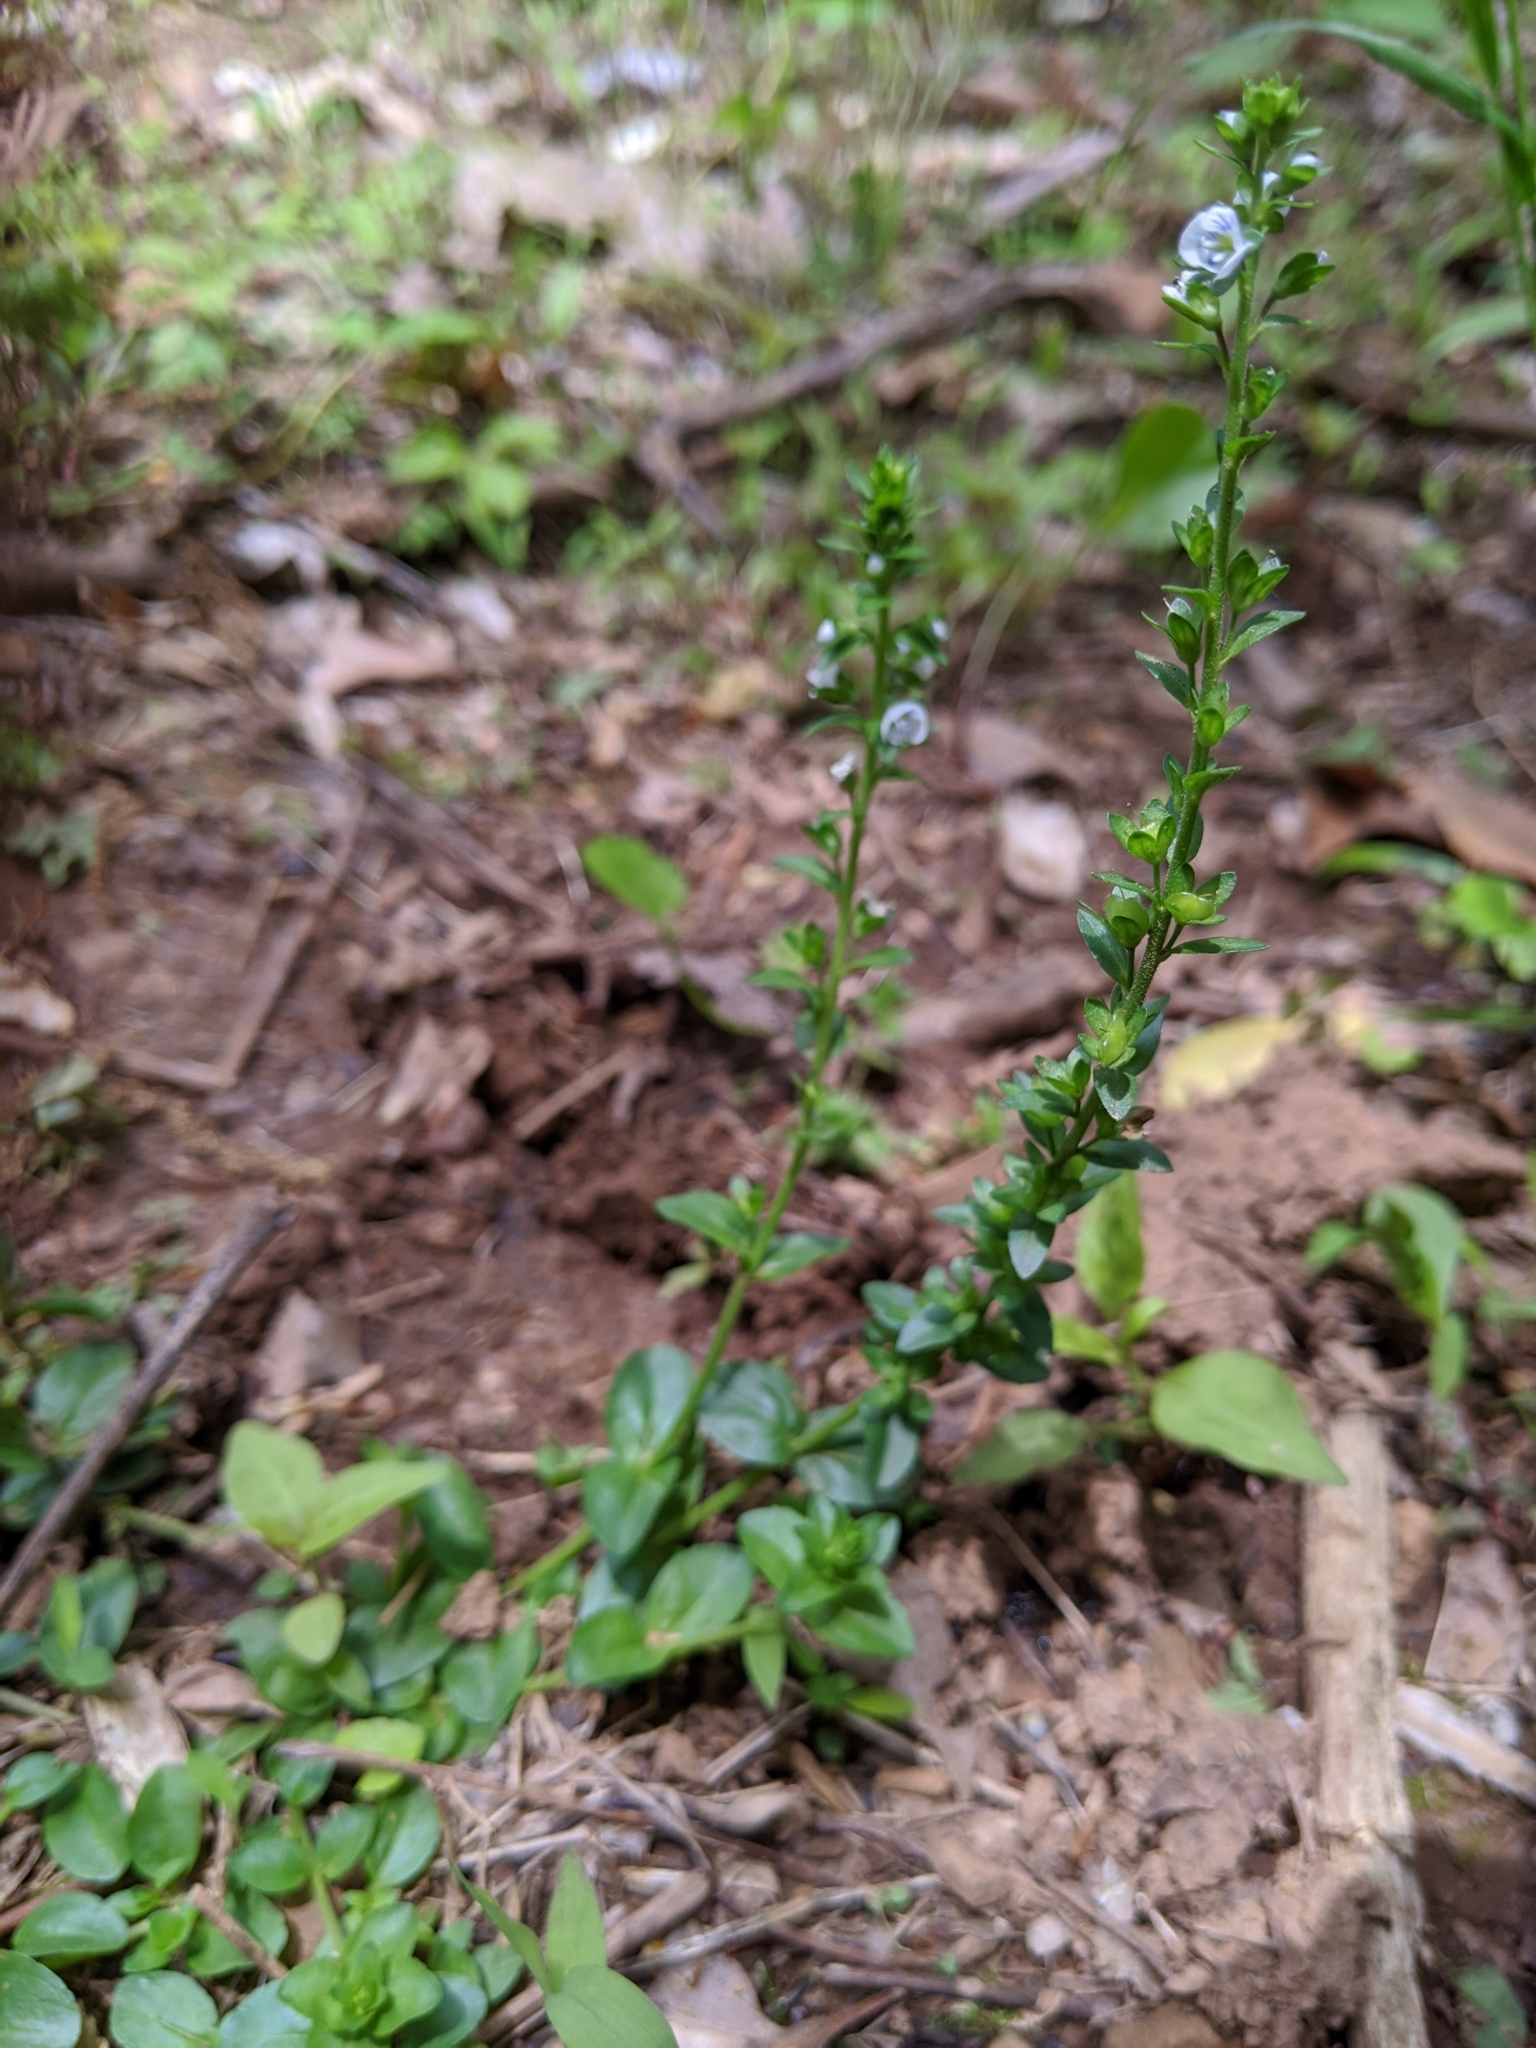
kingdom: Plantae
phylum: Tracheophyta
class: Magnoliopsida
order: Lamiales
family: Plantaginaceae
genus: Veronica
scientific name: Veronica serpyllifolia
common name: Thyme-leaved speedwell
